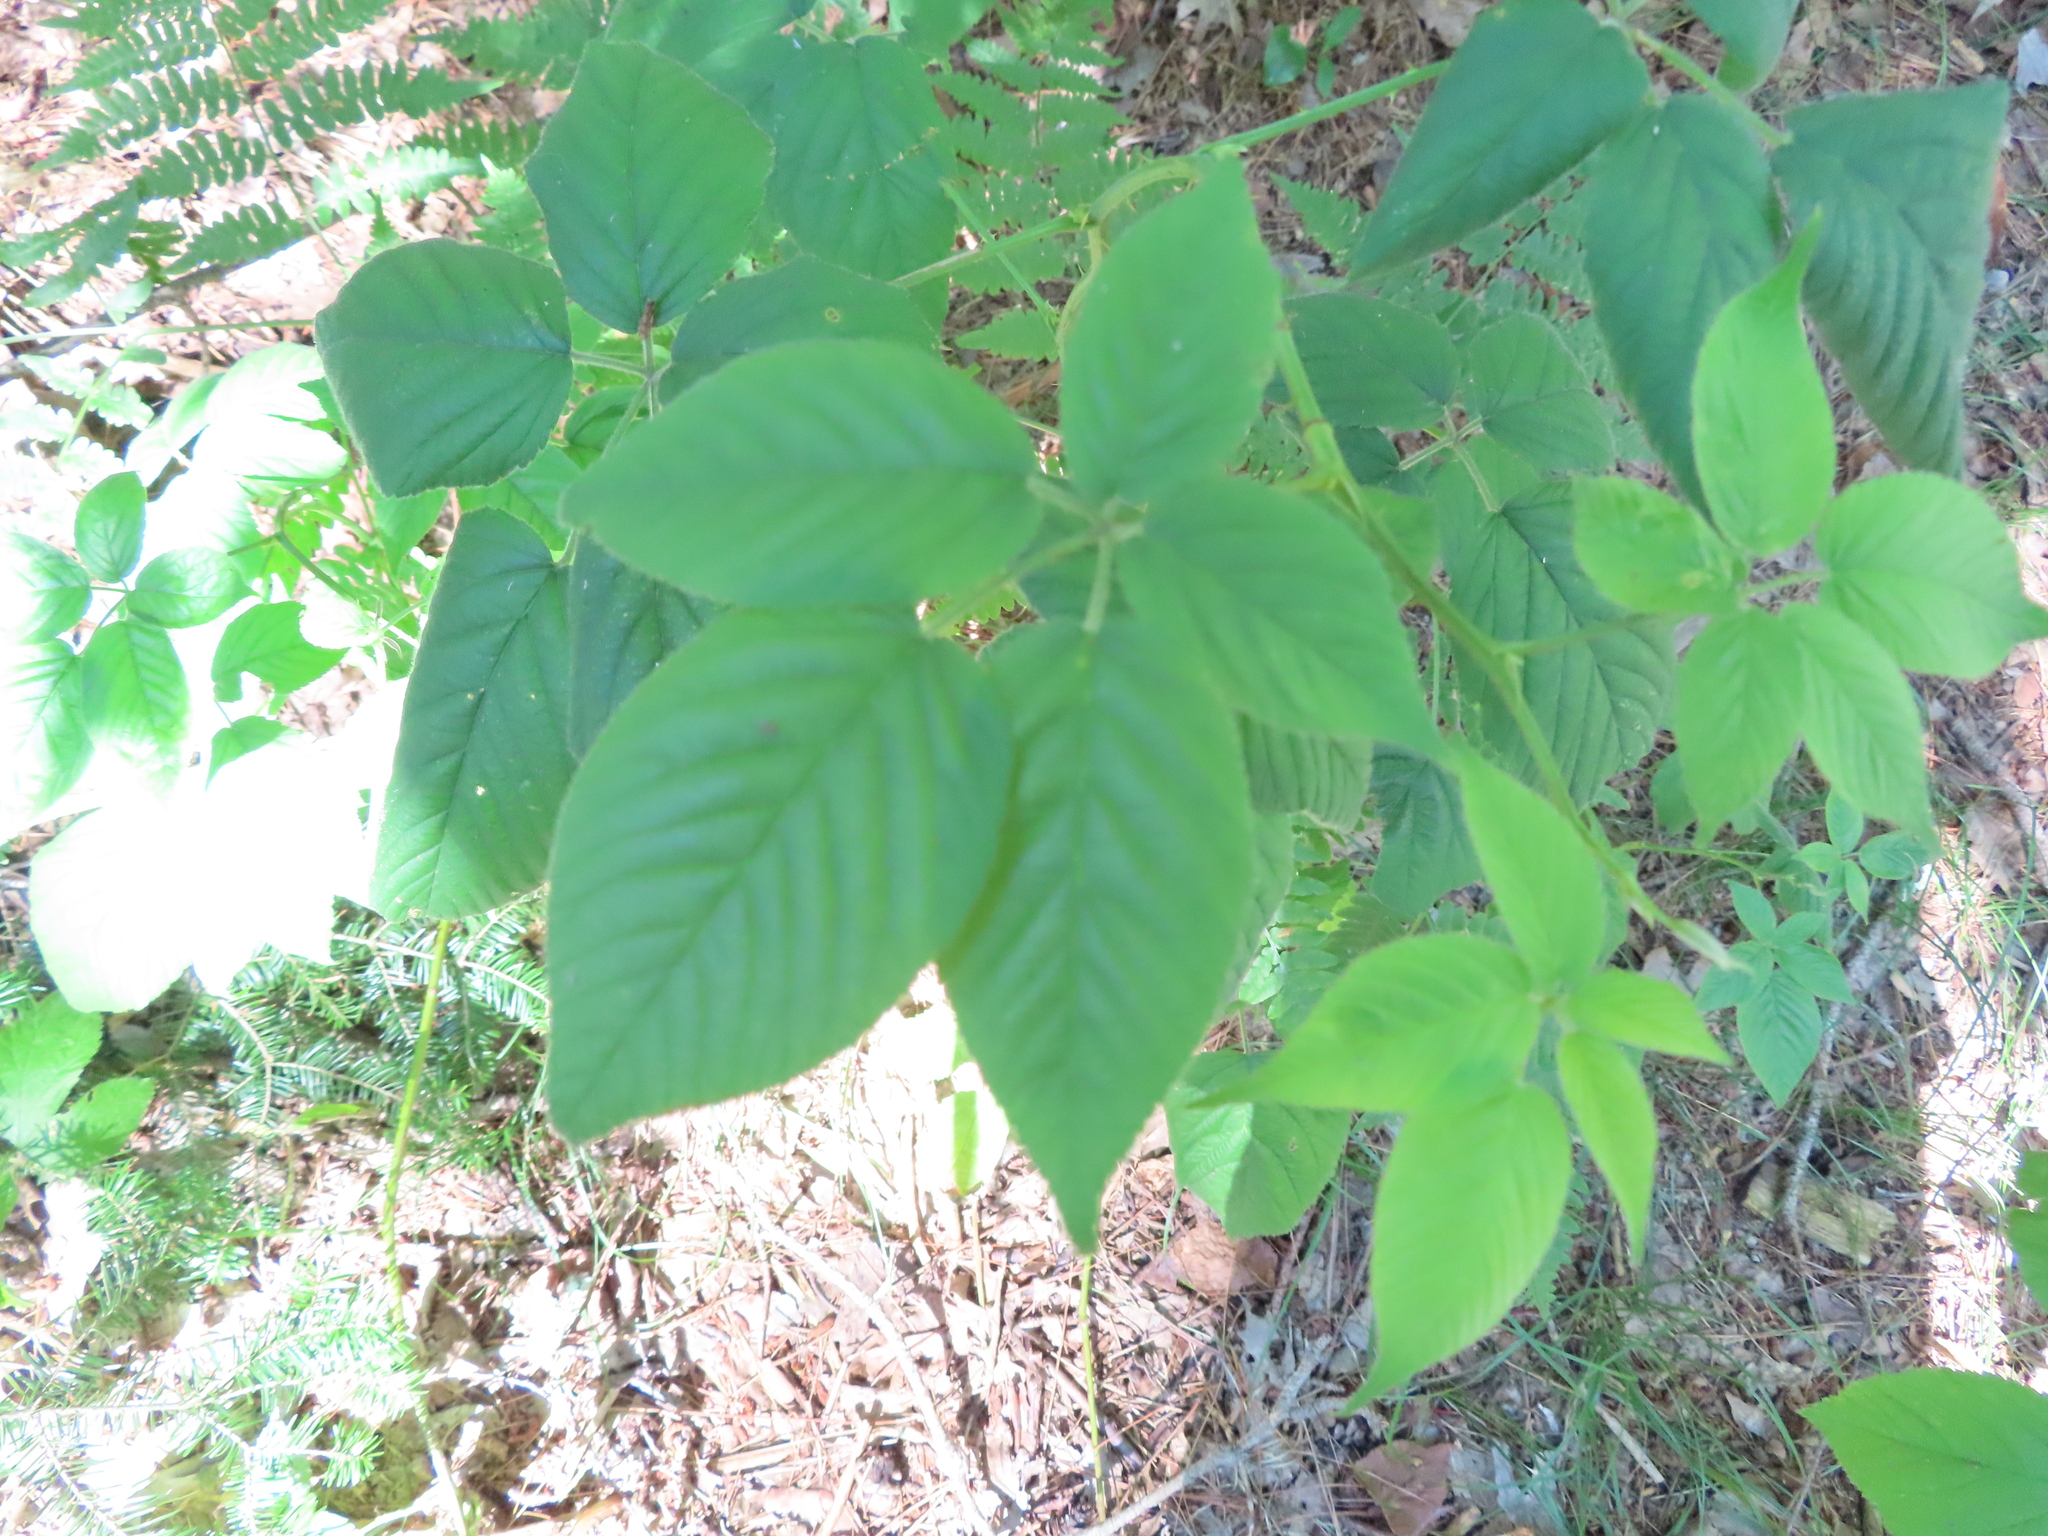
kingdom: Plantae
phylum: Tracheophyta
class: Magnoliopsida
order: Rosales
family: Rosaceae
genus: Rubus
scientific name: Rubus allegheniensis
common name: Allegheny blackberry
